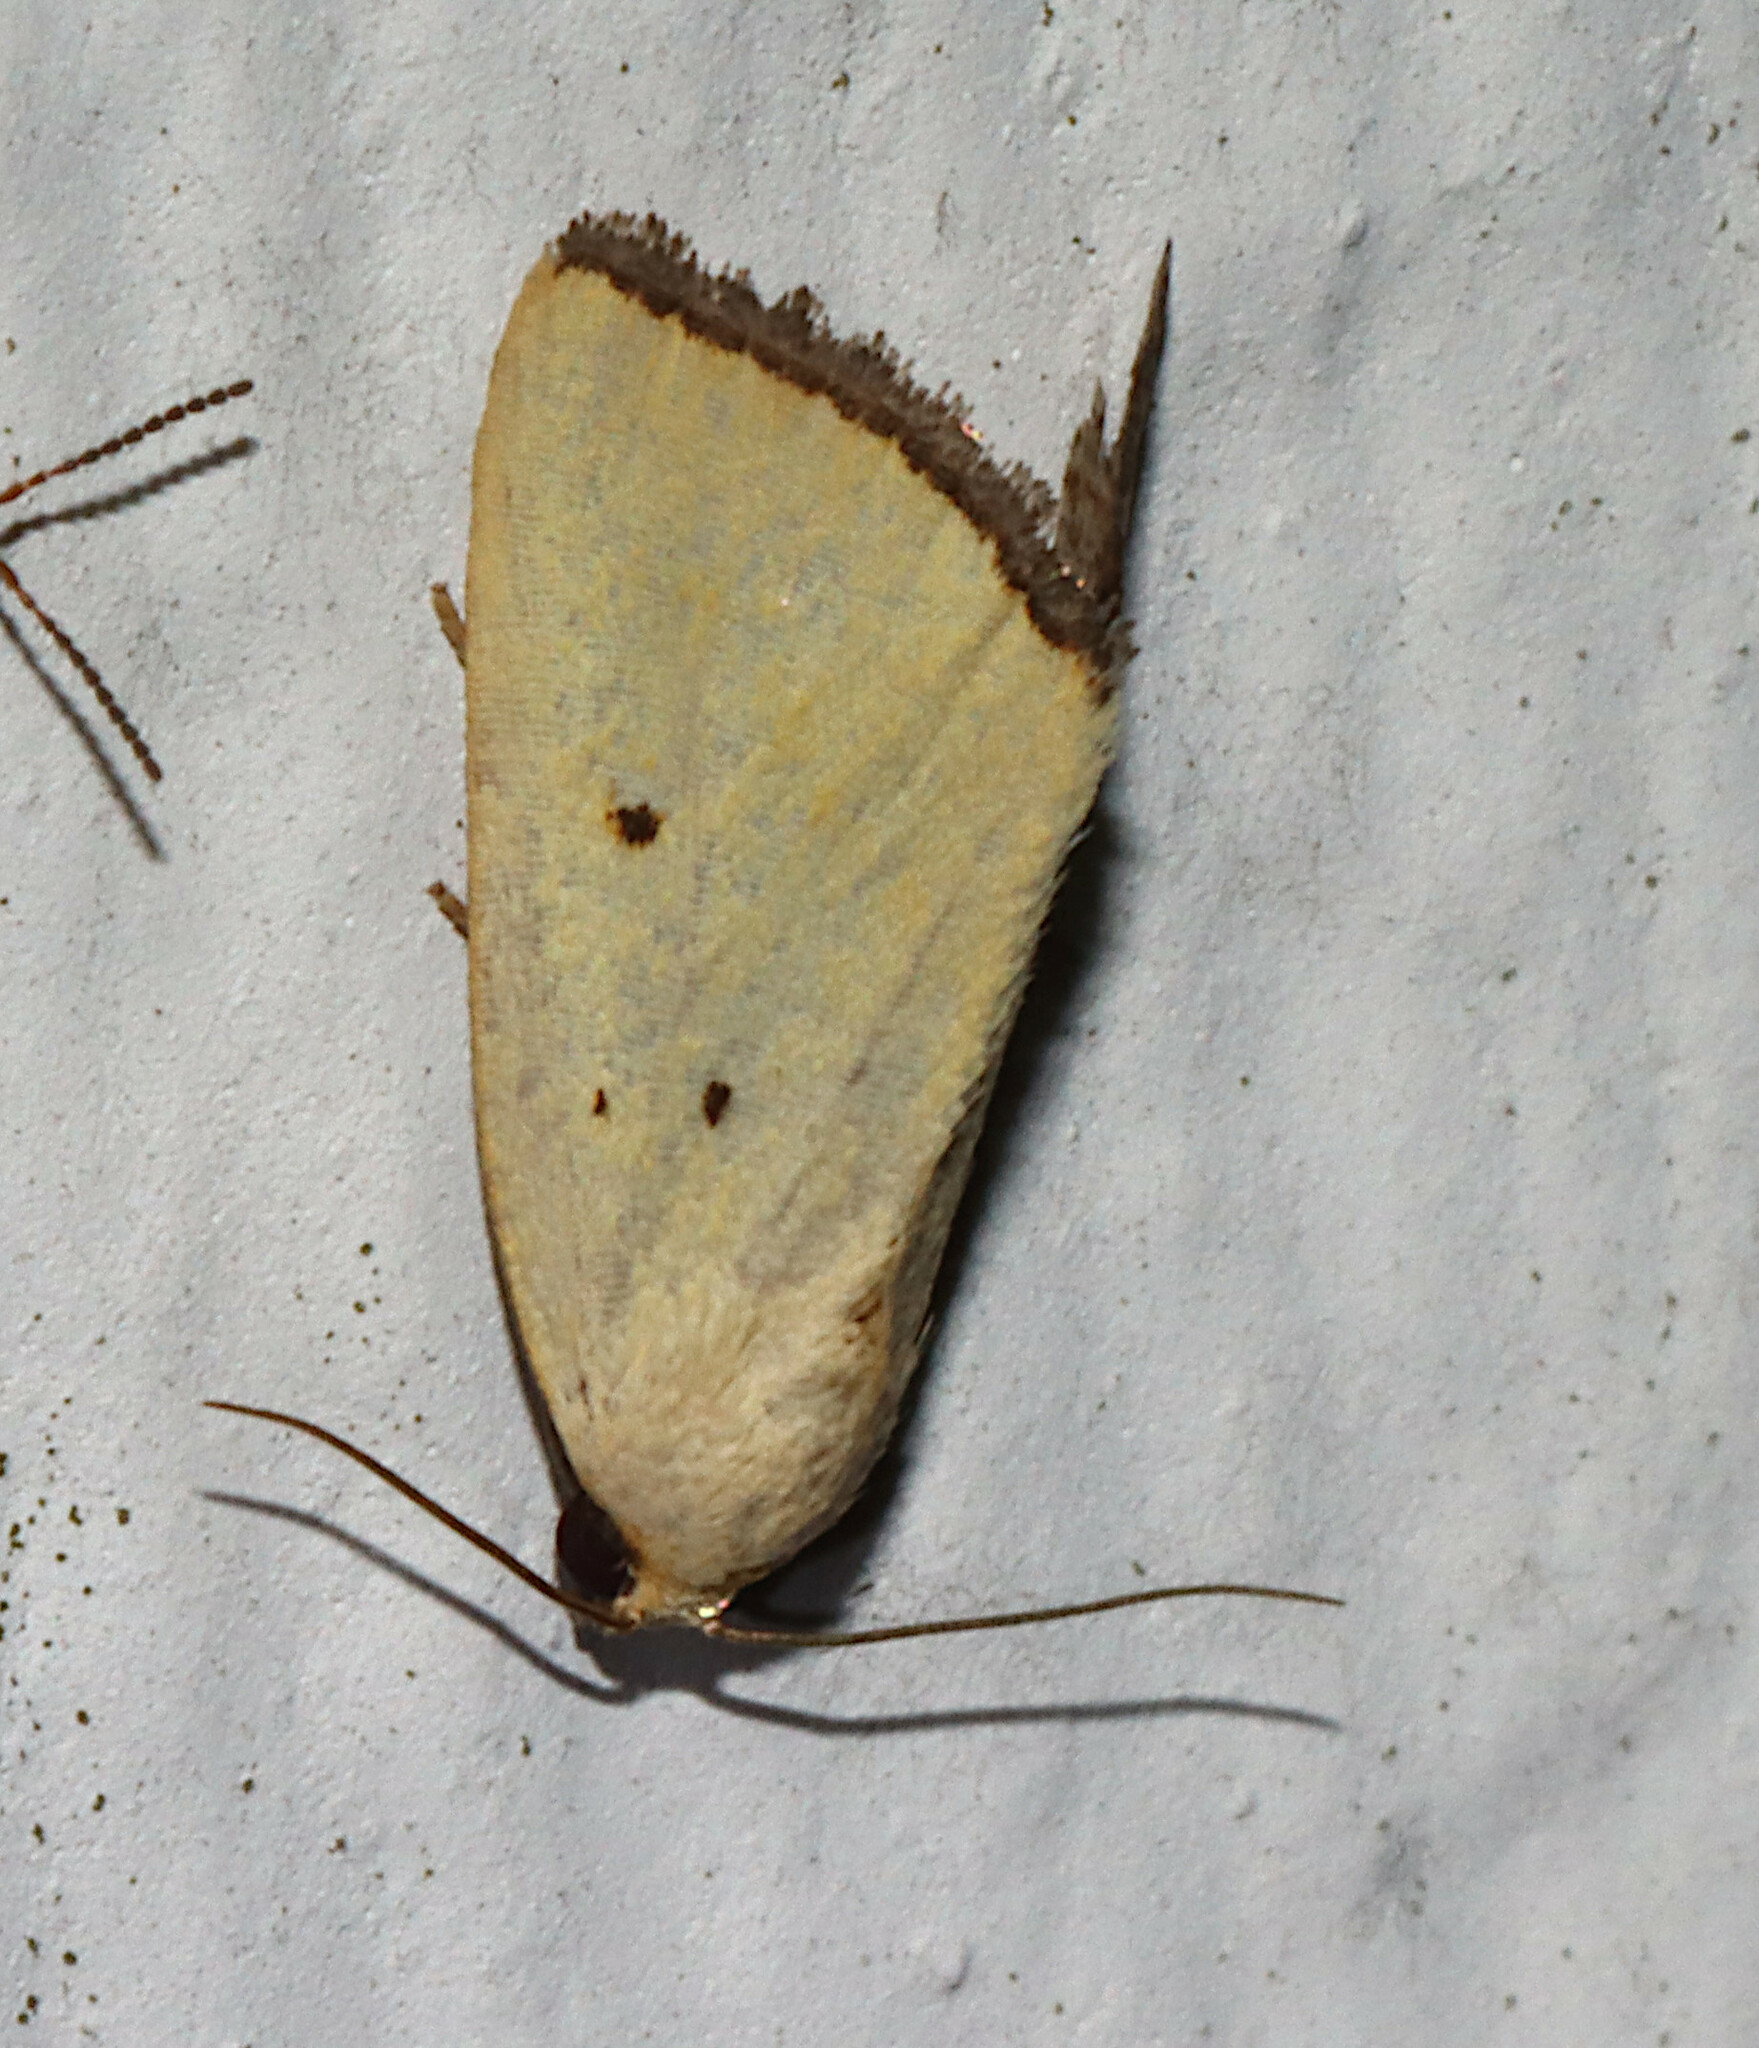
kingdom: Animalia
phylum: Arthropoda
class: Insecta
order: Lepidoptera
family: Noctuidae
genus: Marimatha
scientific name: Marimatha nigrofimbria
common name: Black-bordered lemon moth
